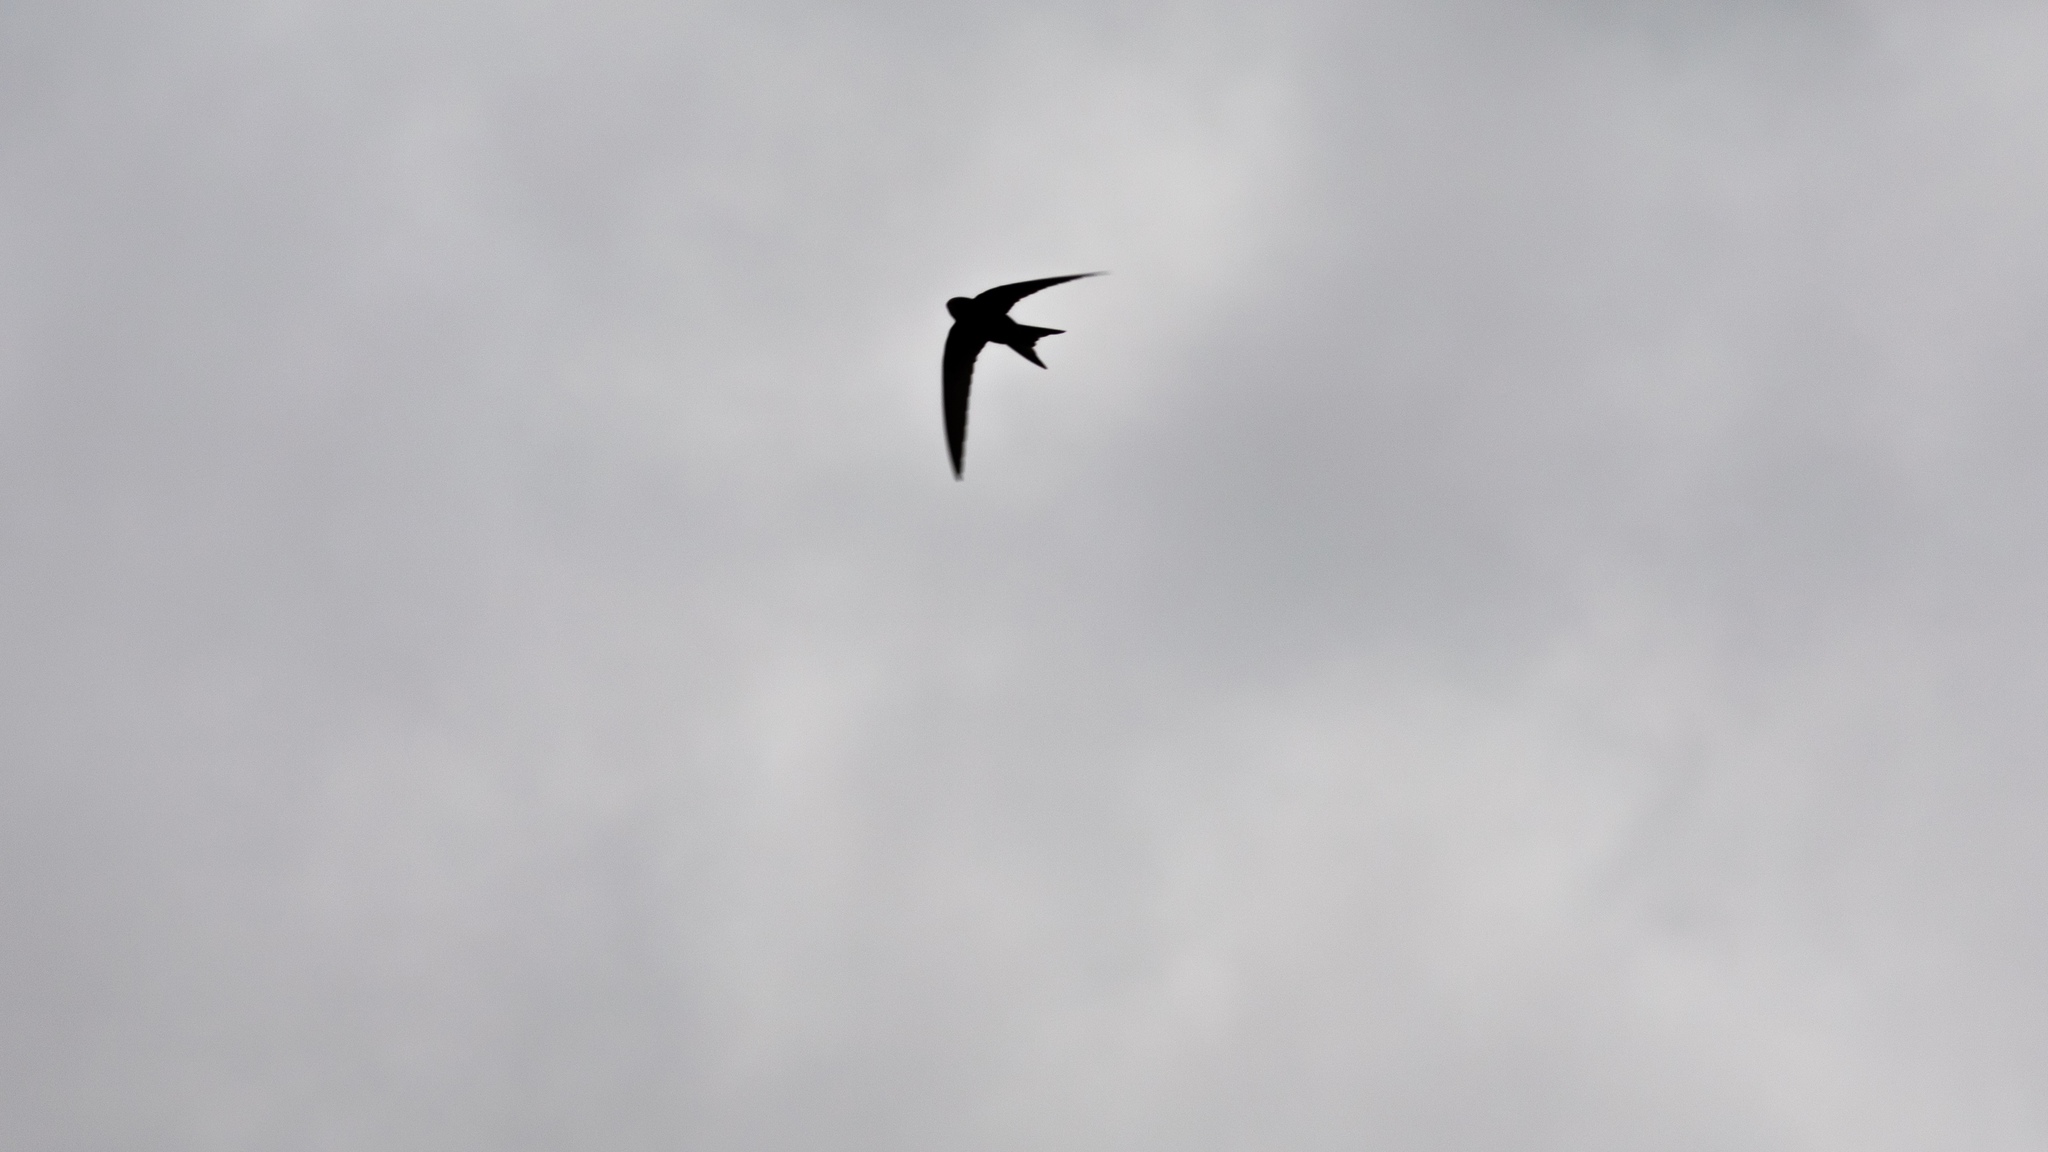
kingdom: Animalia
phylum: Chordata
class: Aves
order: Apodiformes
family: Apodidae
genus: Apus
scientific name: Apus apus
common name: Common swift
